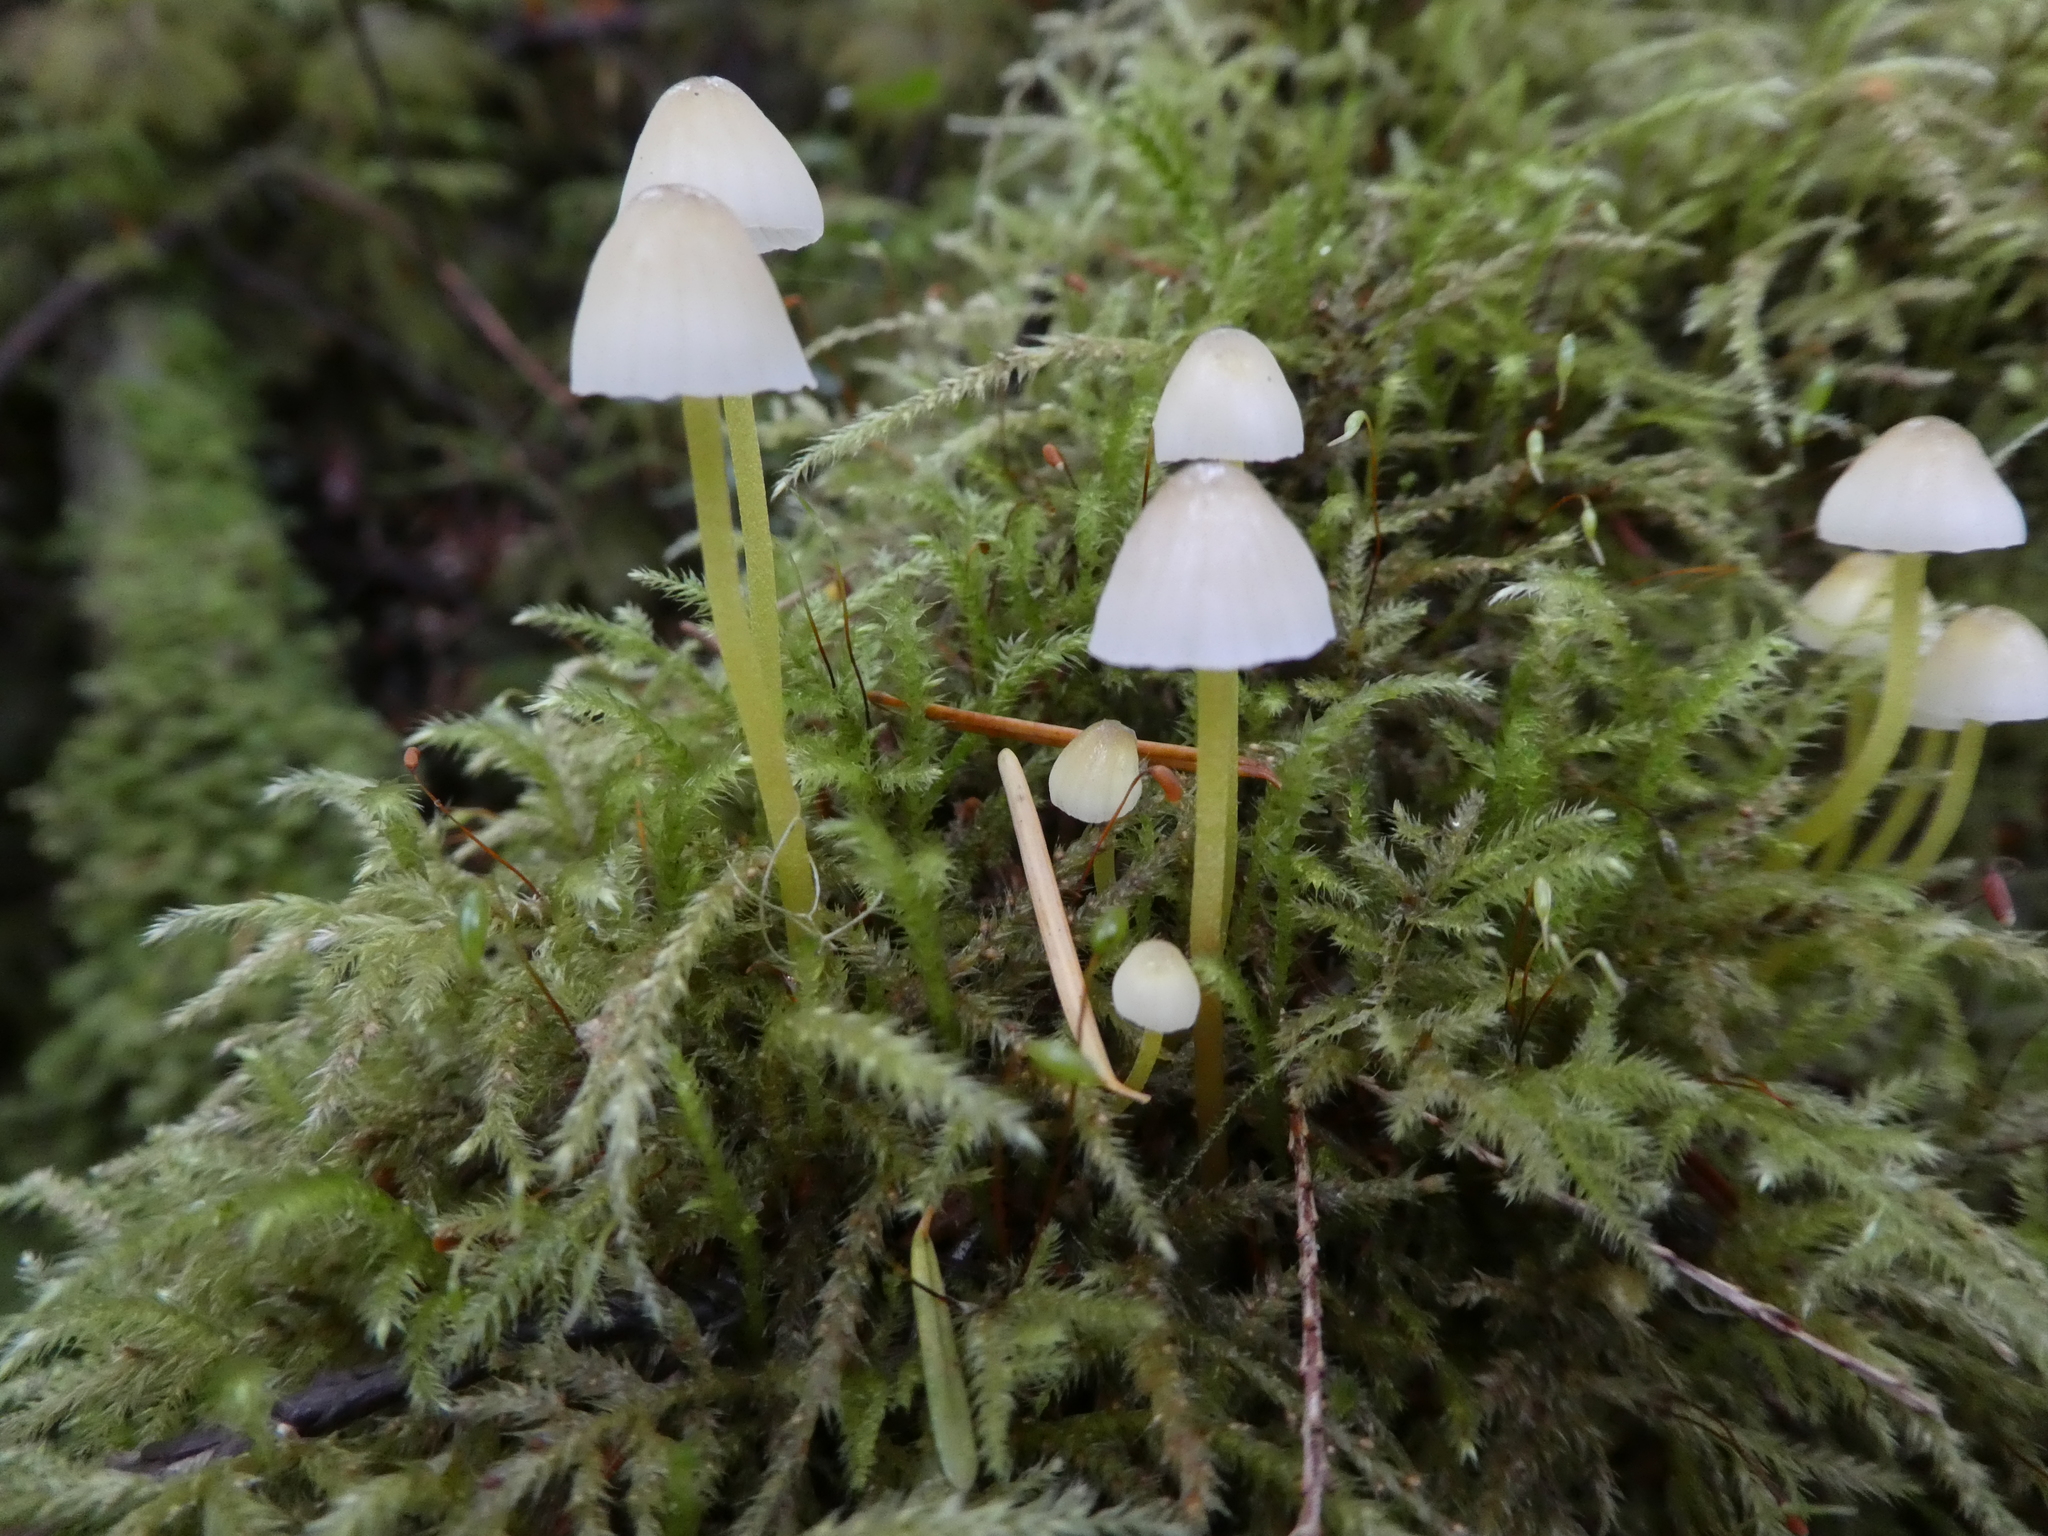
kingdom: Fungi
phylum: Basidiomycota
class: Agaricomycetes
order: Agaricales
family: Mycenaceae
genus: Mycena
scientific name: Mycena epipterygia
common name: Yellowleg bonnet
